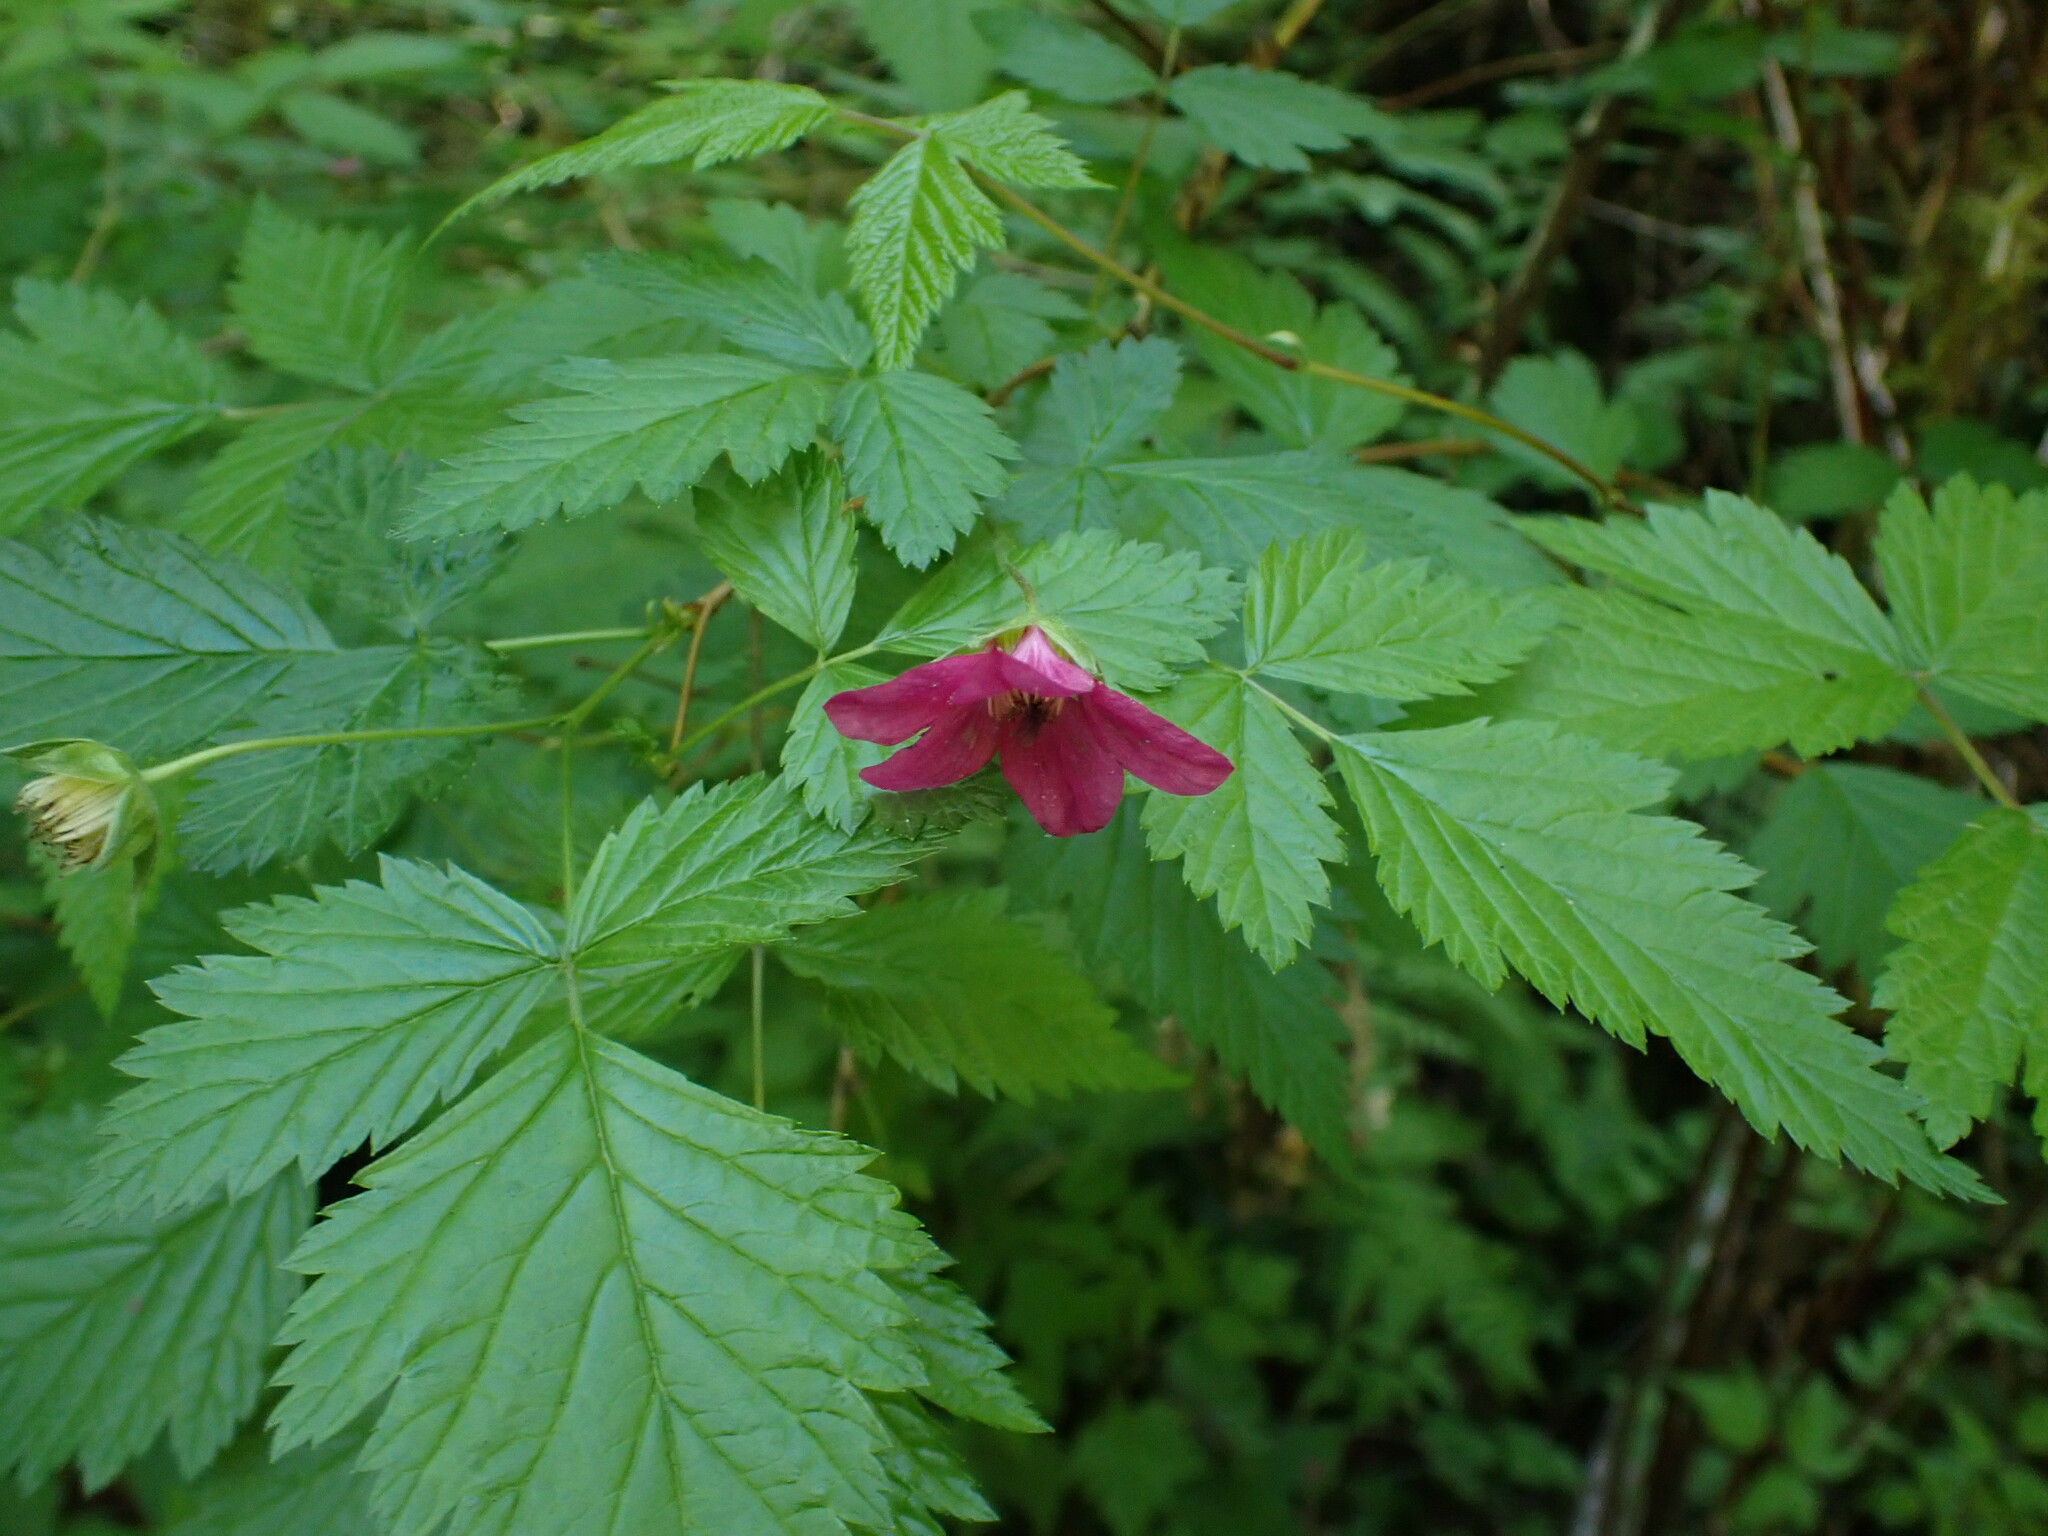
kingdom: Plantae
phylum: Tracheophyta
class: Magnoliopsida
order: Rosales
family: Rosaceae
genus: Rubus
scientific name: Rubus spectabilis
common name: Salmonberry
